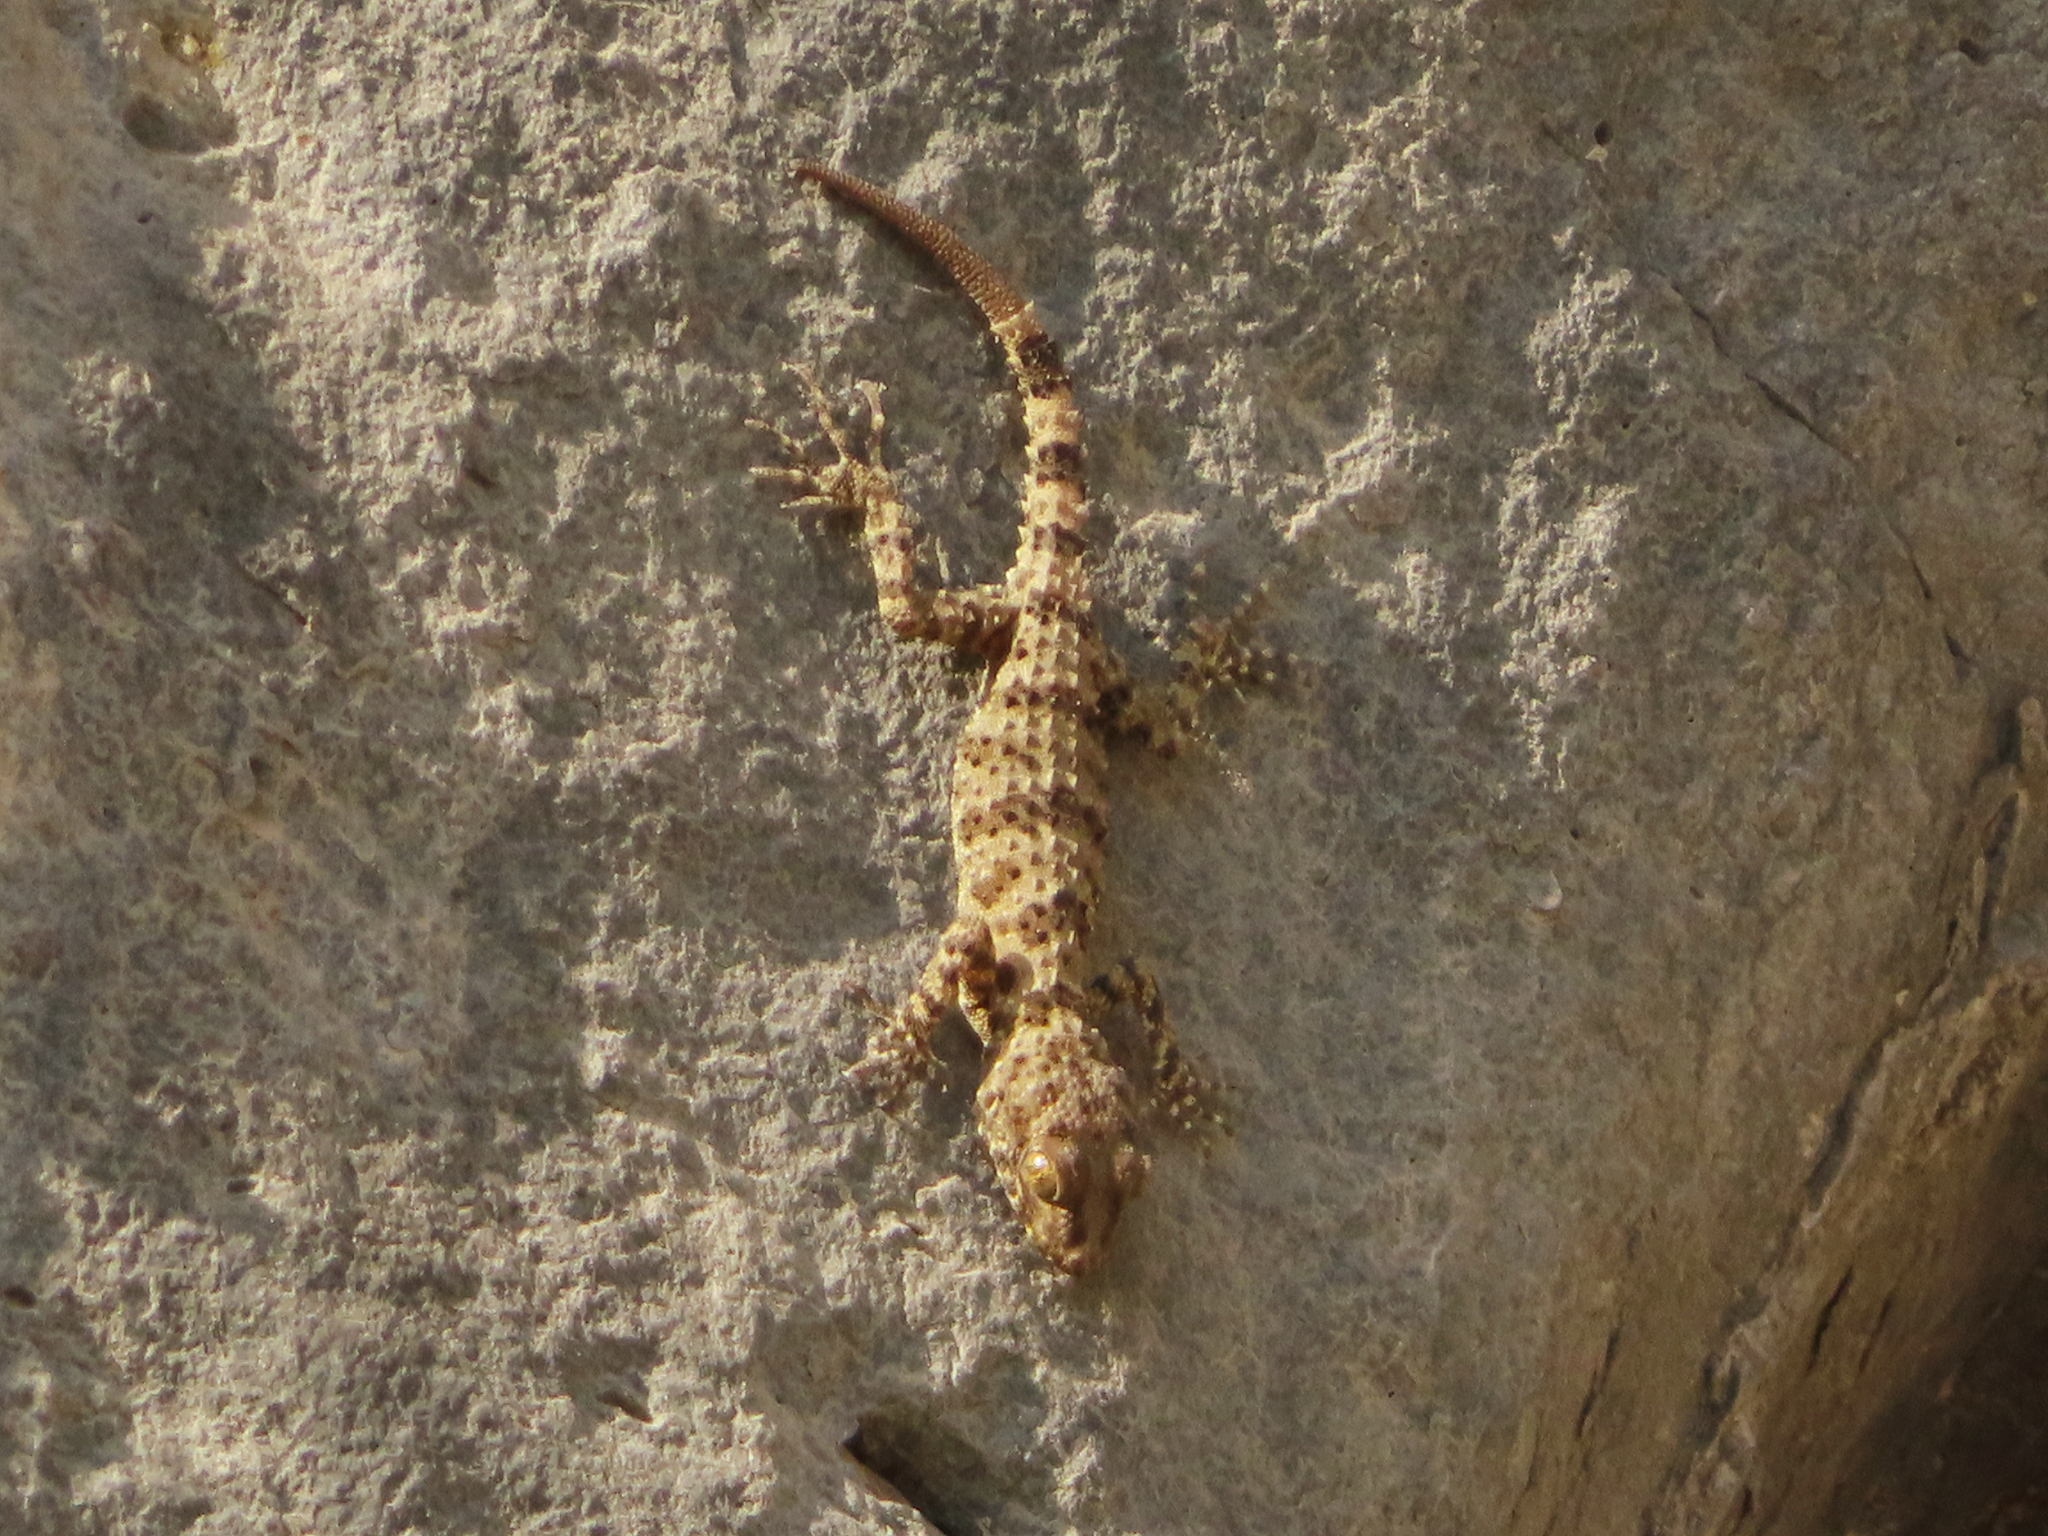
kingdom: Animalia
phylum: Chordata
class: Squamata
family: Gekkonidae
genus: Tenuidactylus
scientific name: Tenuidactylus caspius
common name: Caspian bent-toed gecko
